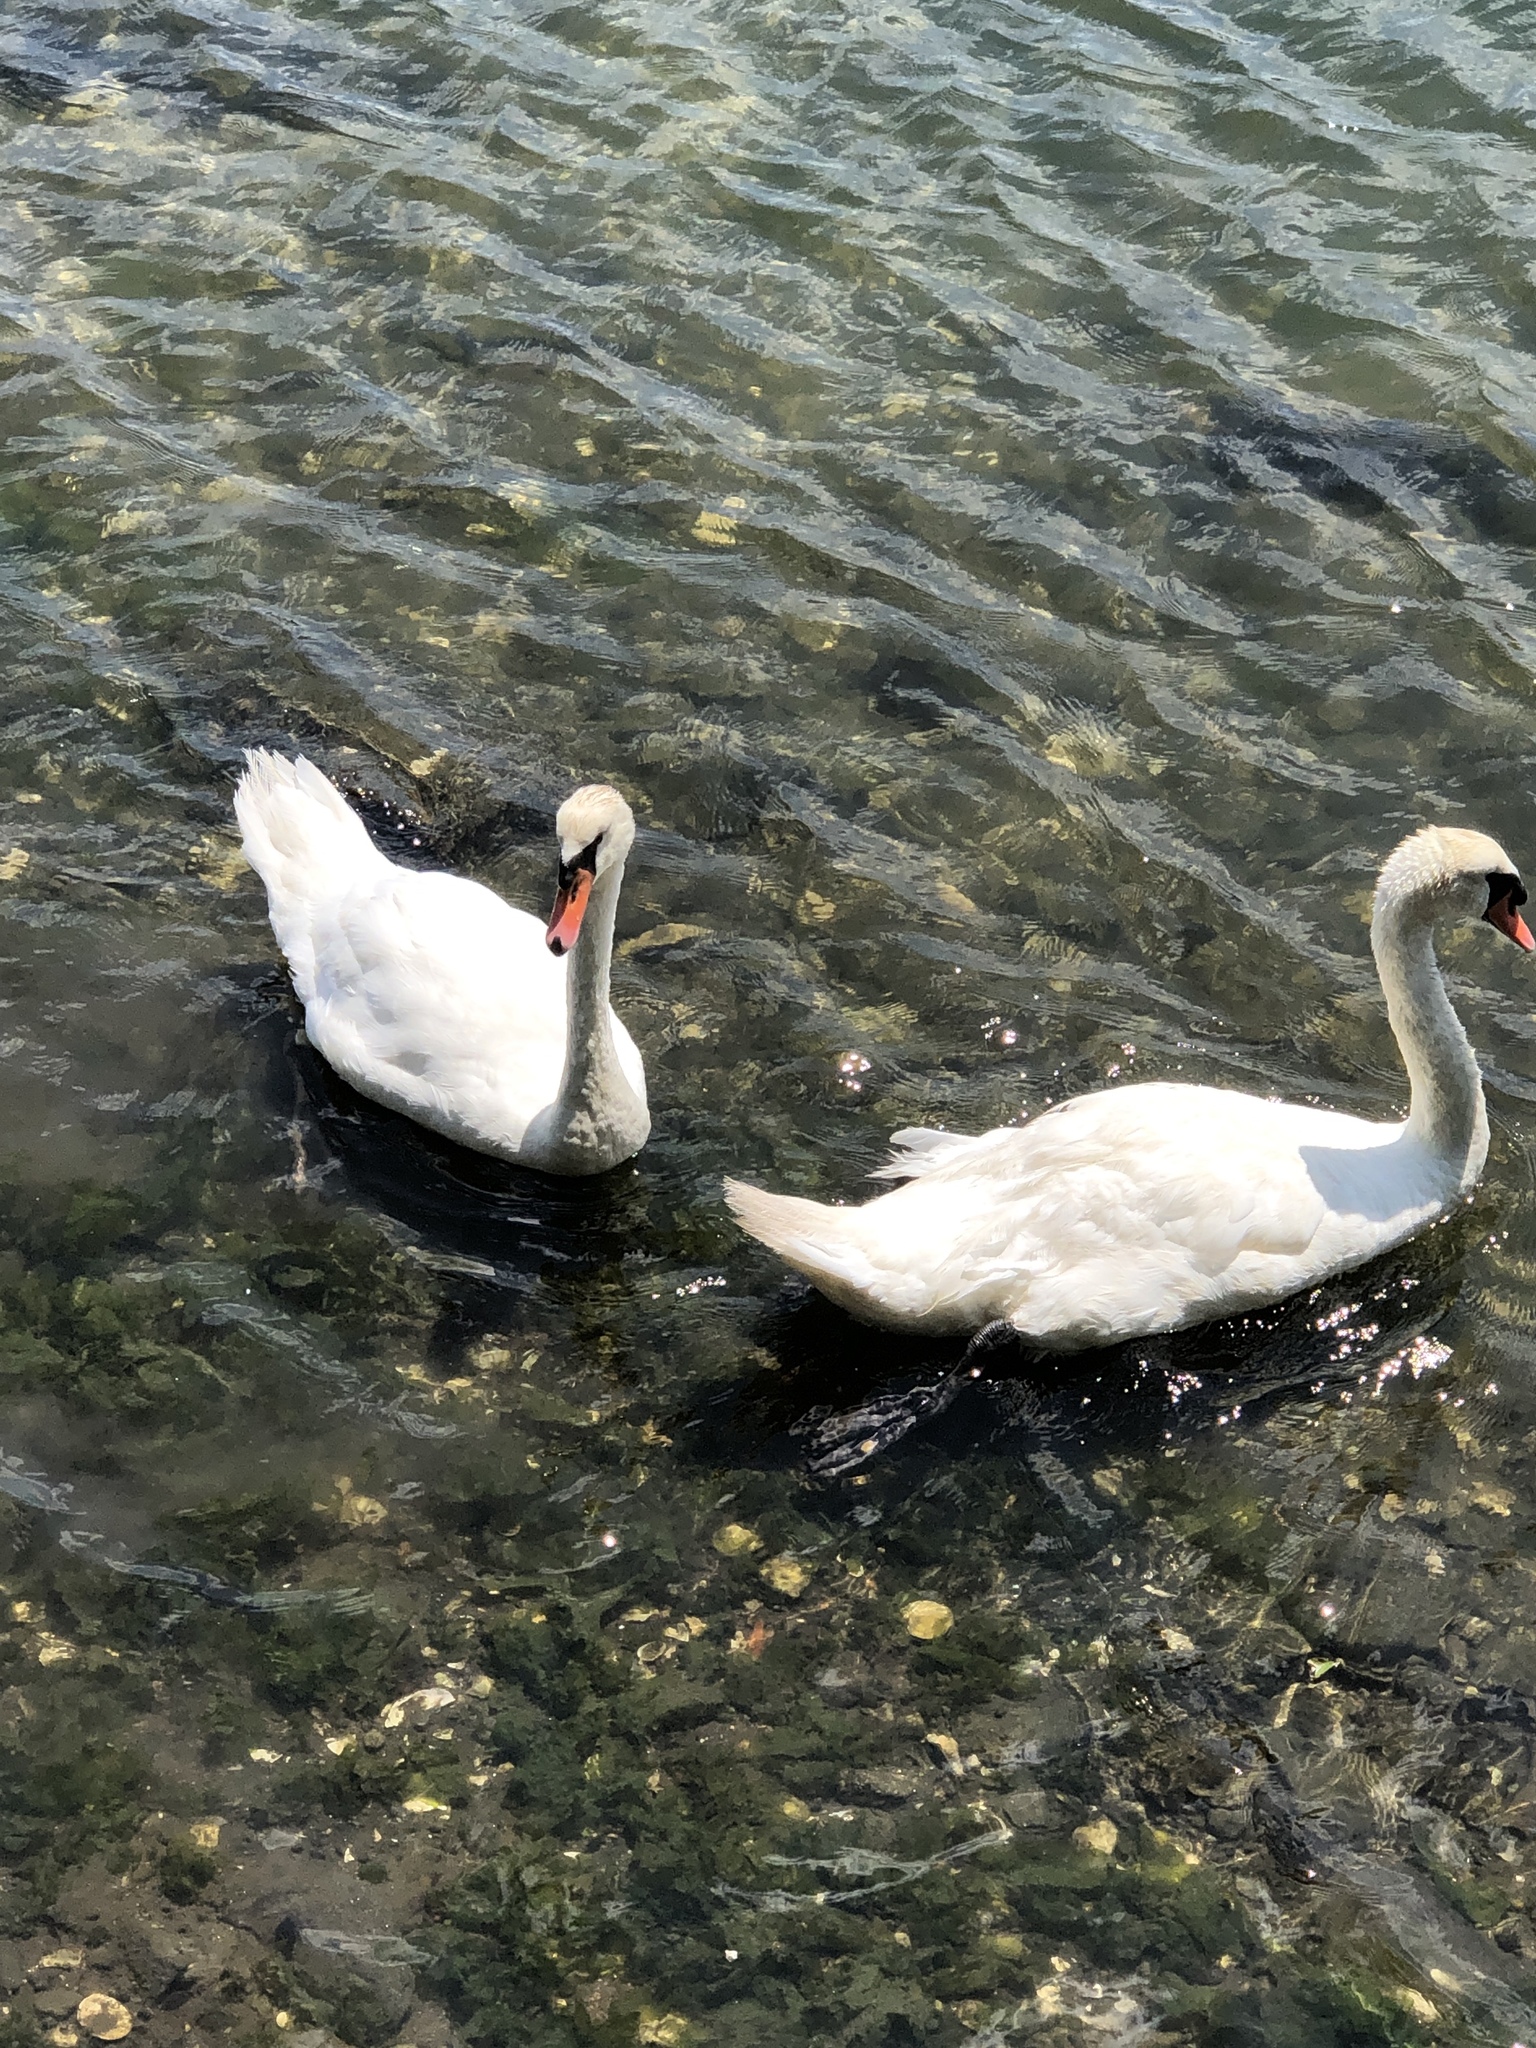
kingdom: Animalia
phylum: Chordata
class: Aves
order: Anseriformes
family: Anatidae
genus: Cygnus
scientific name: Cygnus olor
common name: Mute swan
